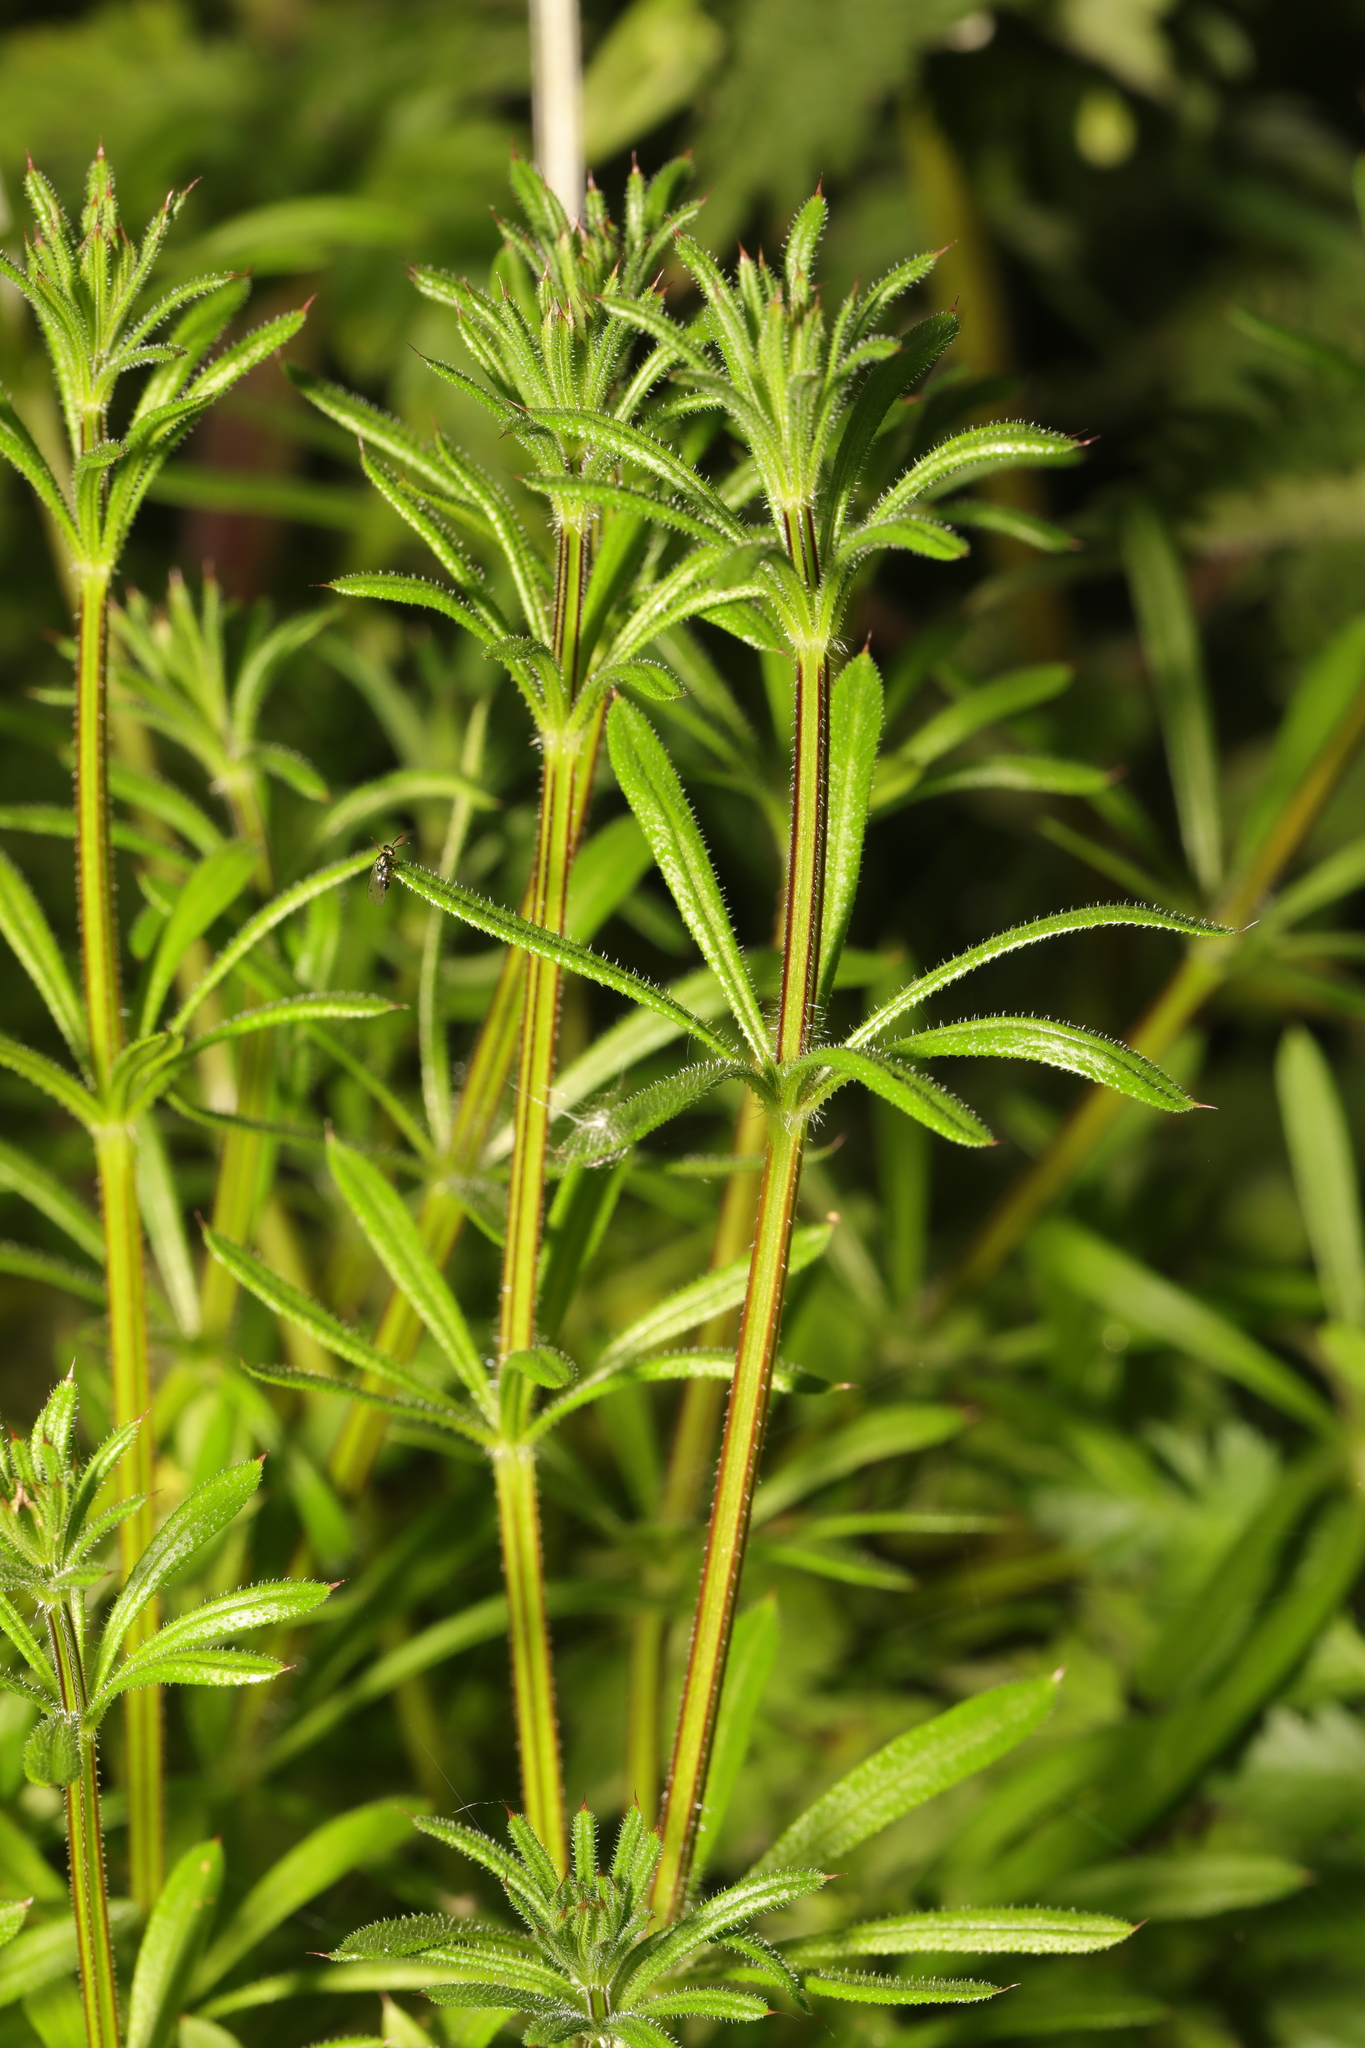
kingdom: Plantae
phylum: Tracheophyta
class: Magnoliopsida
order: Gentianales
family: Rubiaceae
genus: Galium
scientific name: Galium aparine
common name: Cleavers
